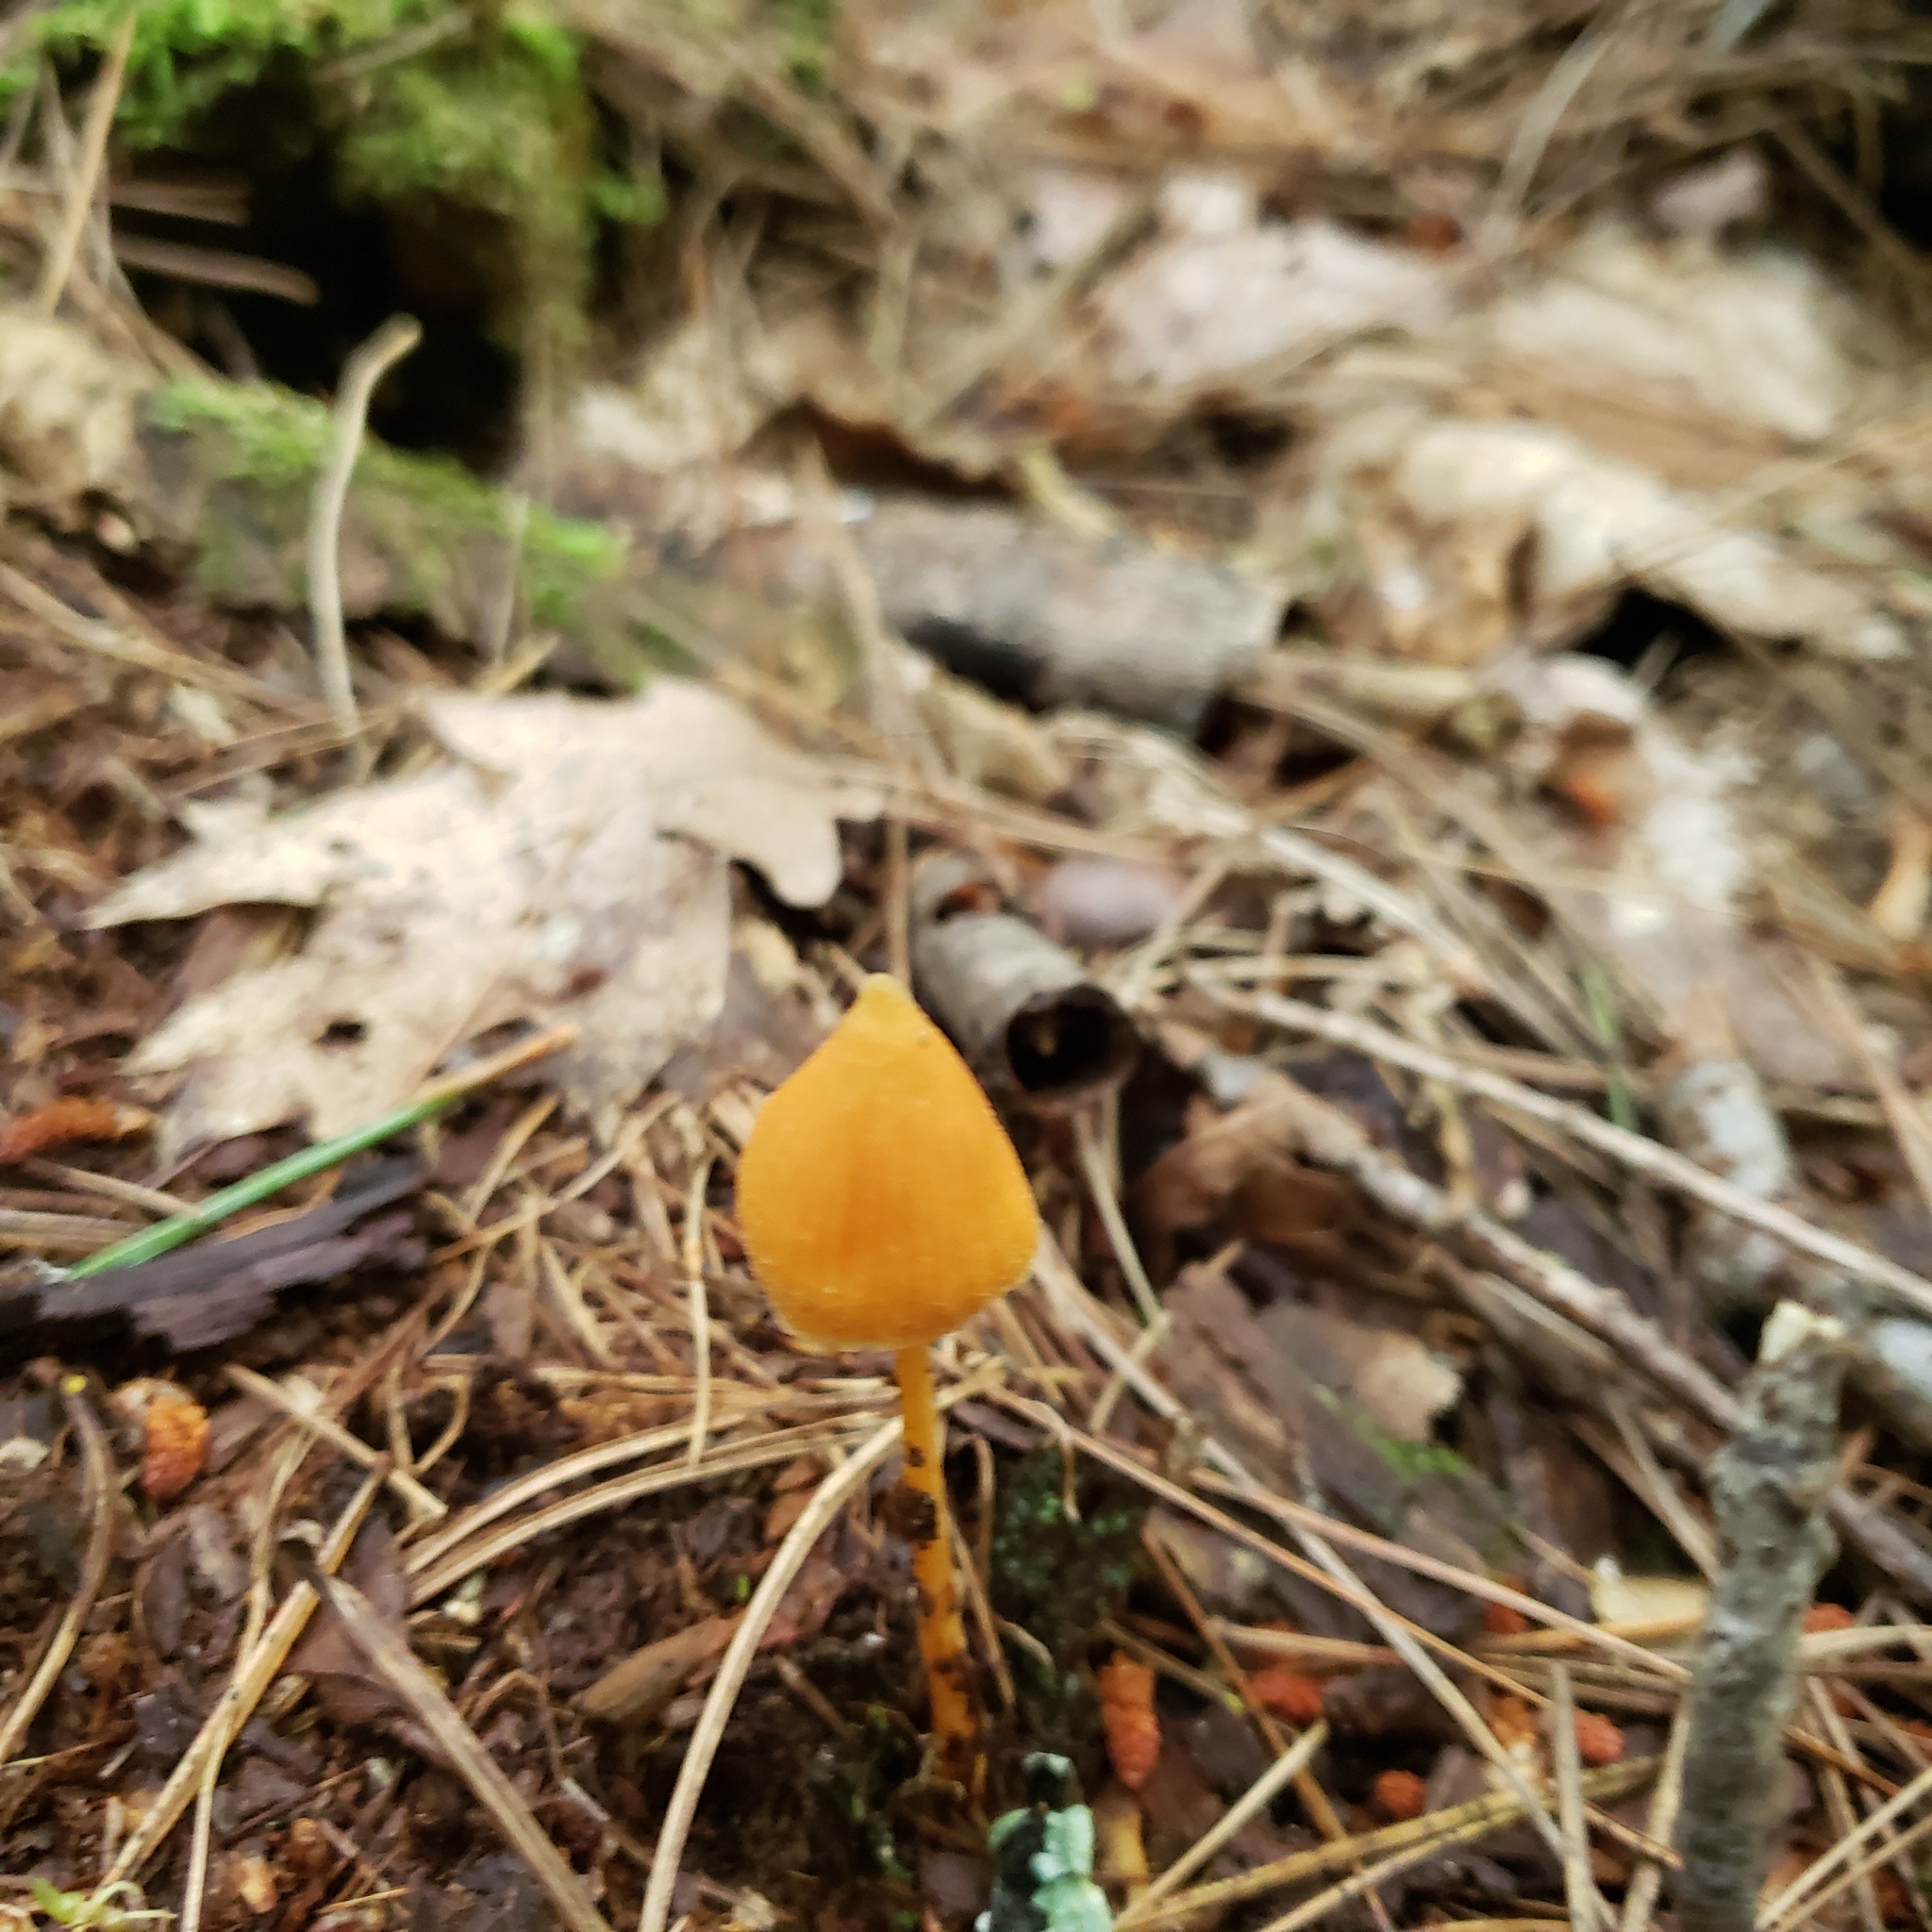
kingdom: Fungi
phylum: Basidiomycota
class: Agaricomycetes
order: Agaricales
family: Entolomataceae
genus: Entoloma
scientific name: Entoloma quadratum
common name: Salmon pinkgill
